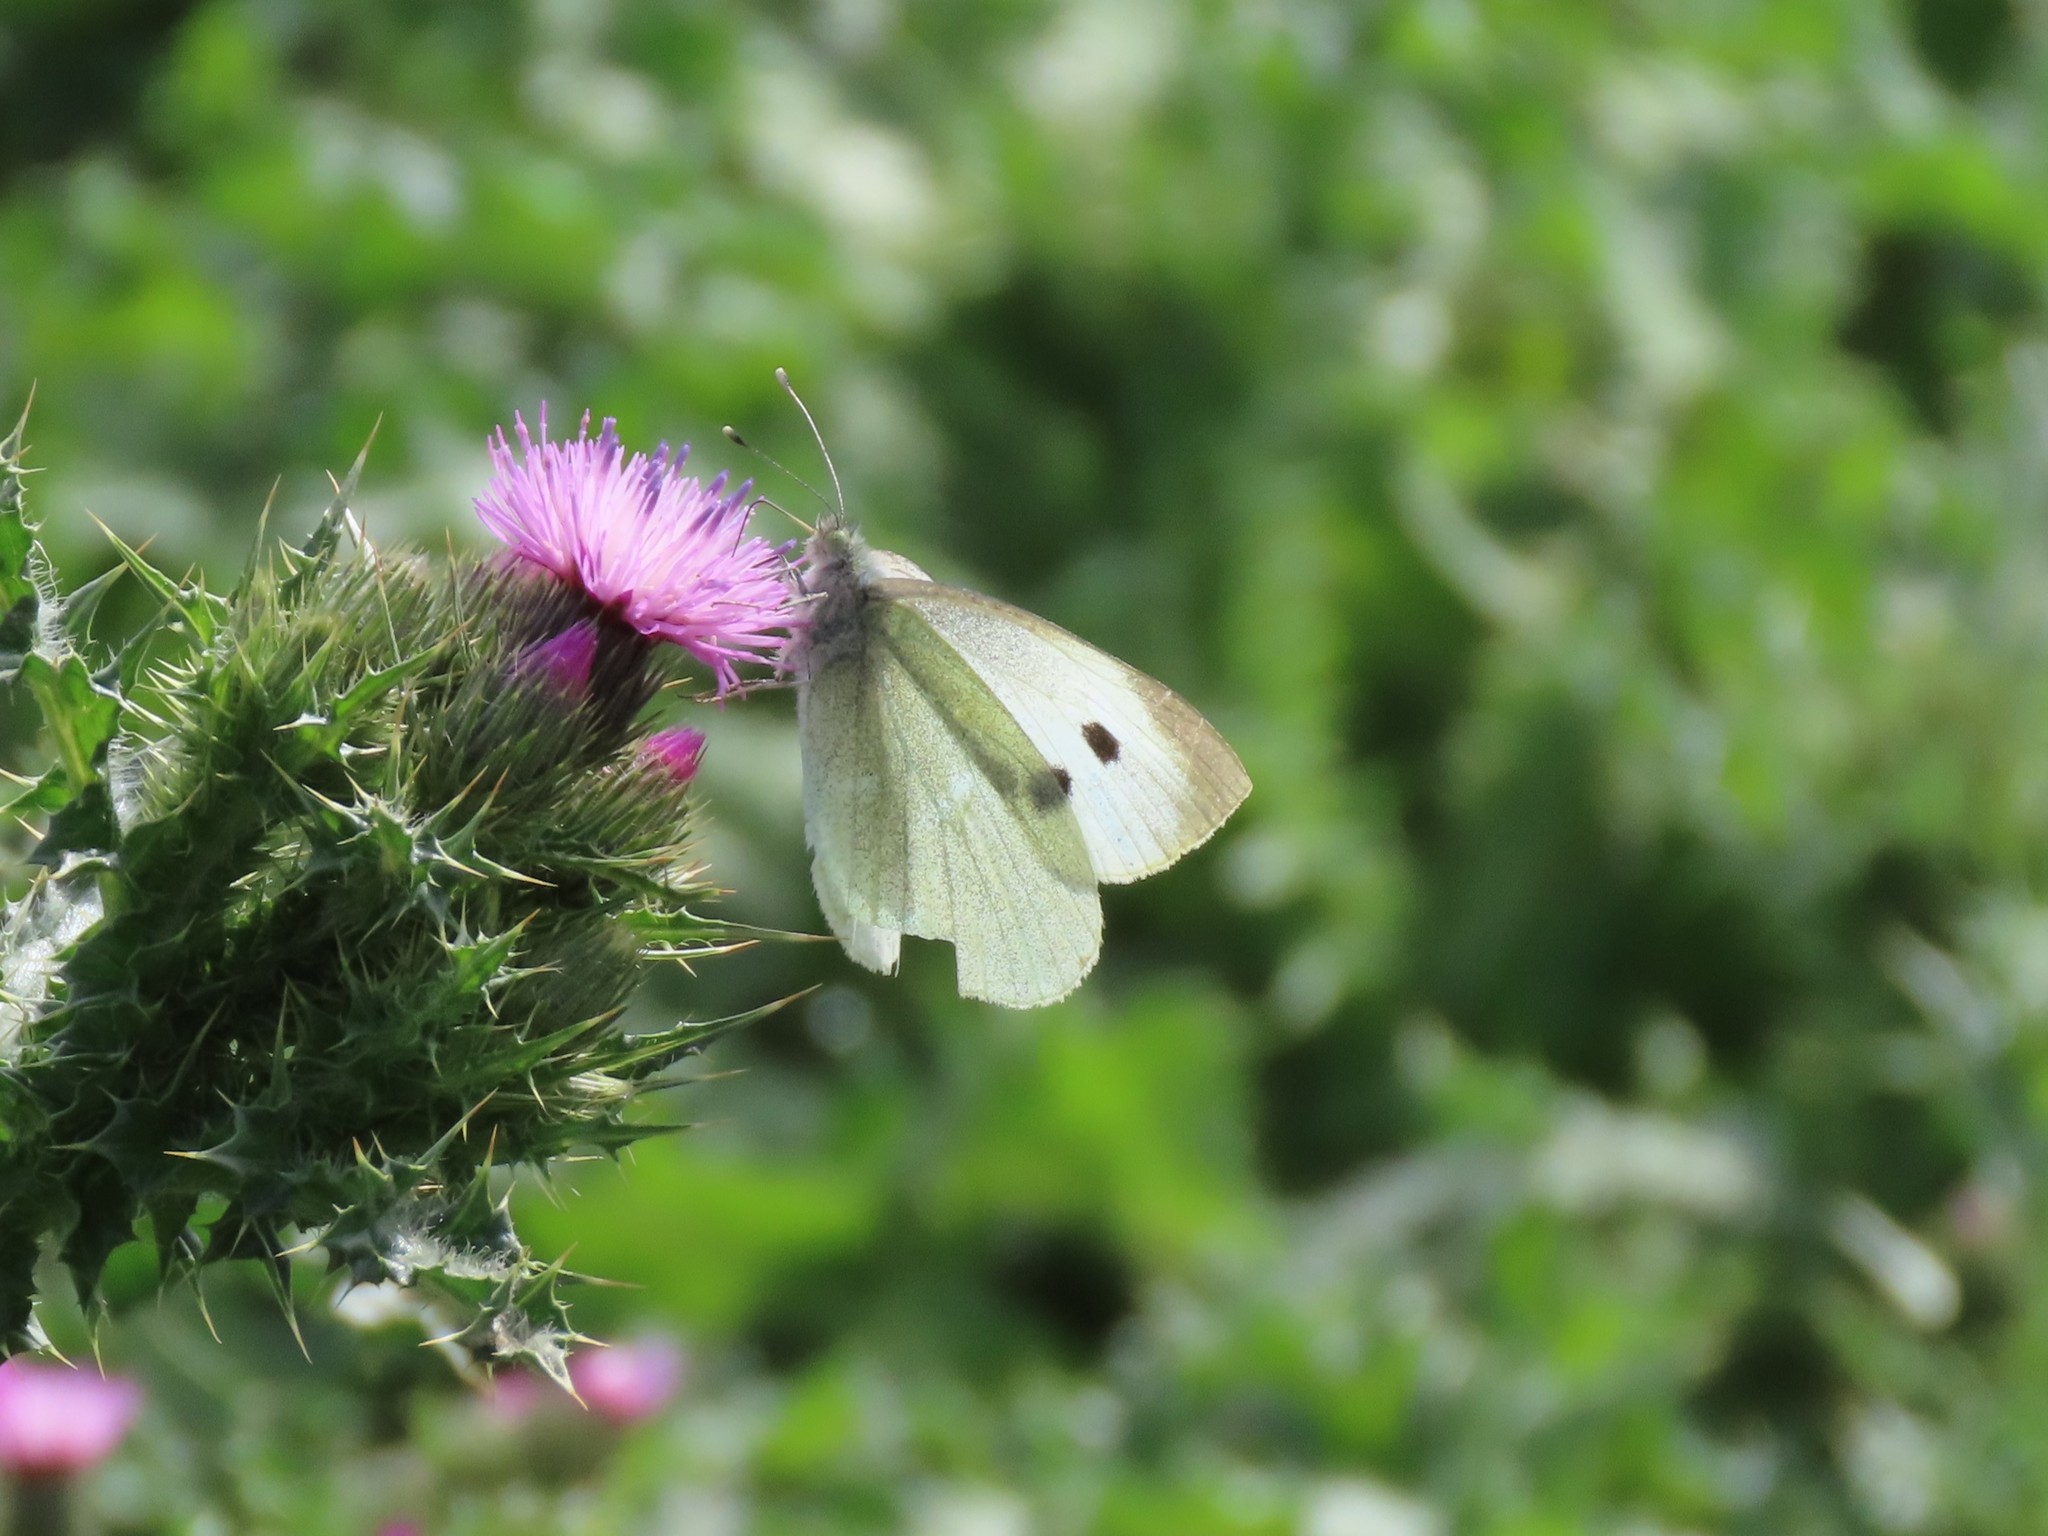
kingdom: Animalia
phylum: Arthropoda
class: Insecta
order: Lepidoptera
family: Pieridae
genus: Pieris
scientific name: Pieris brassicae
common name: Large white
